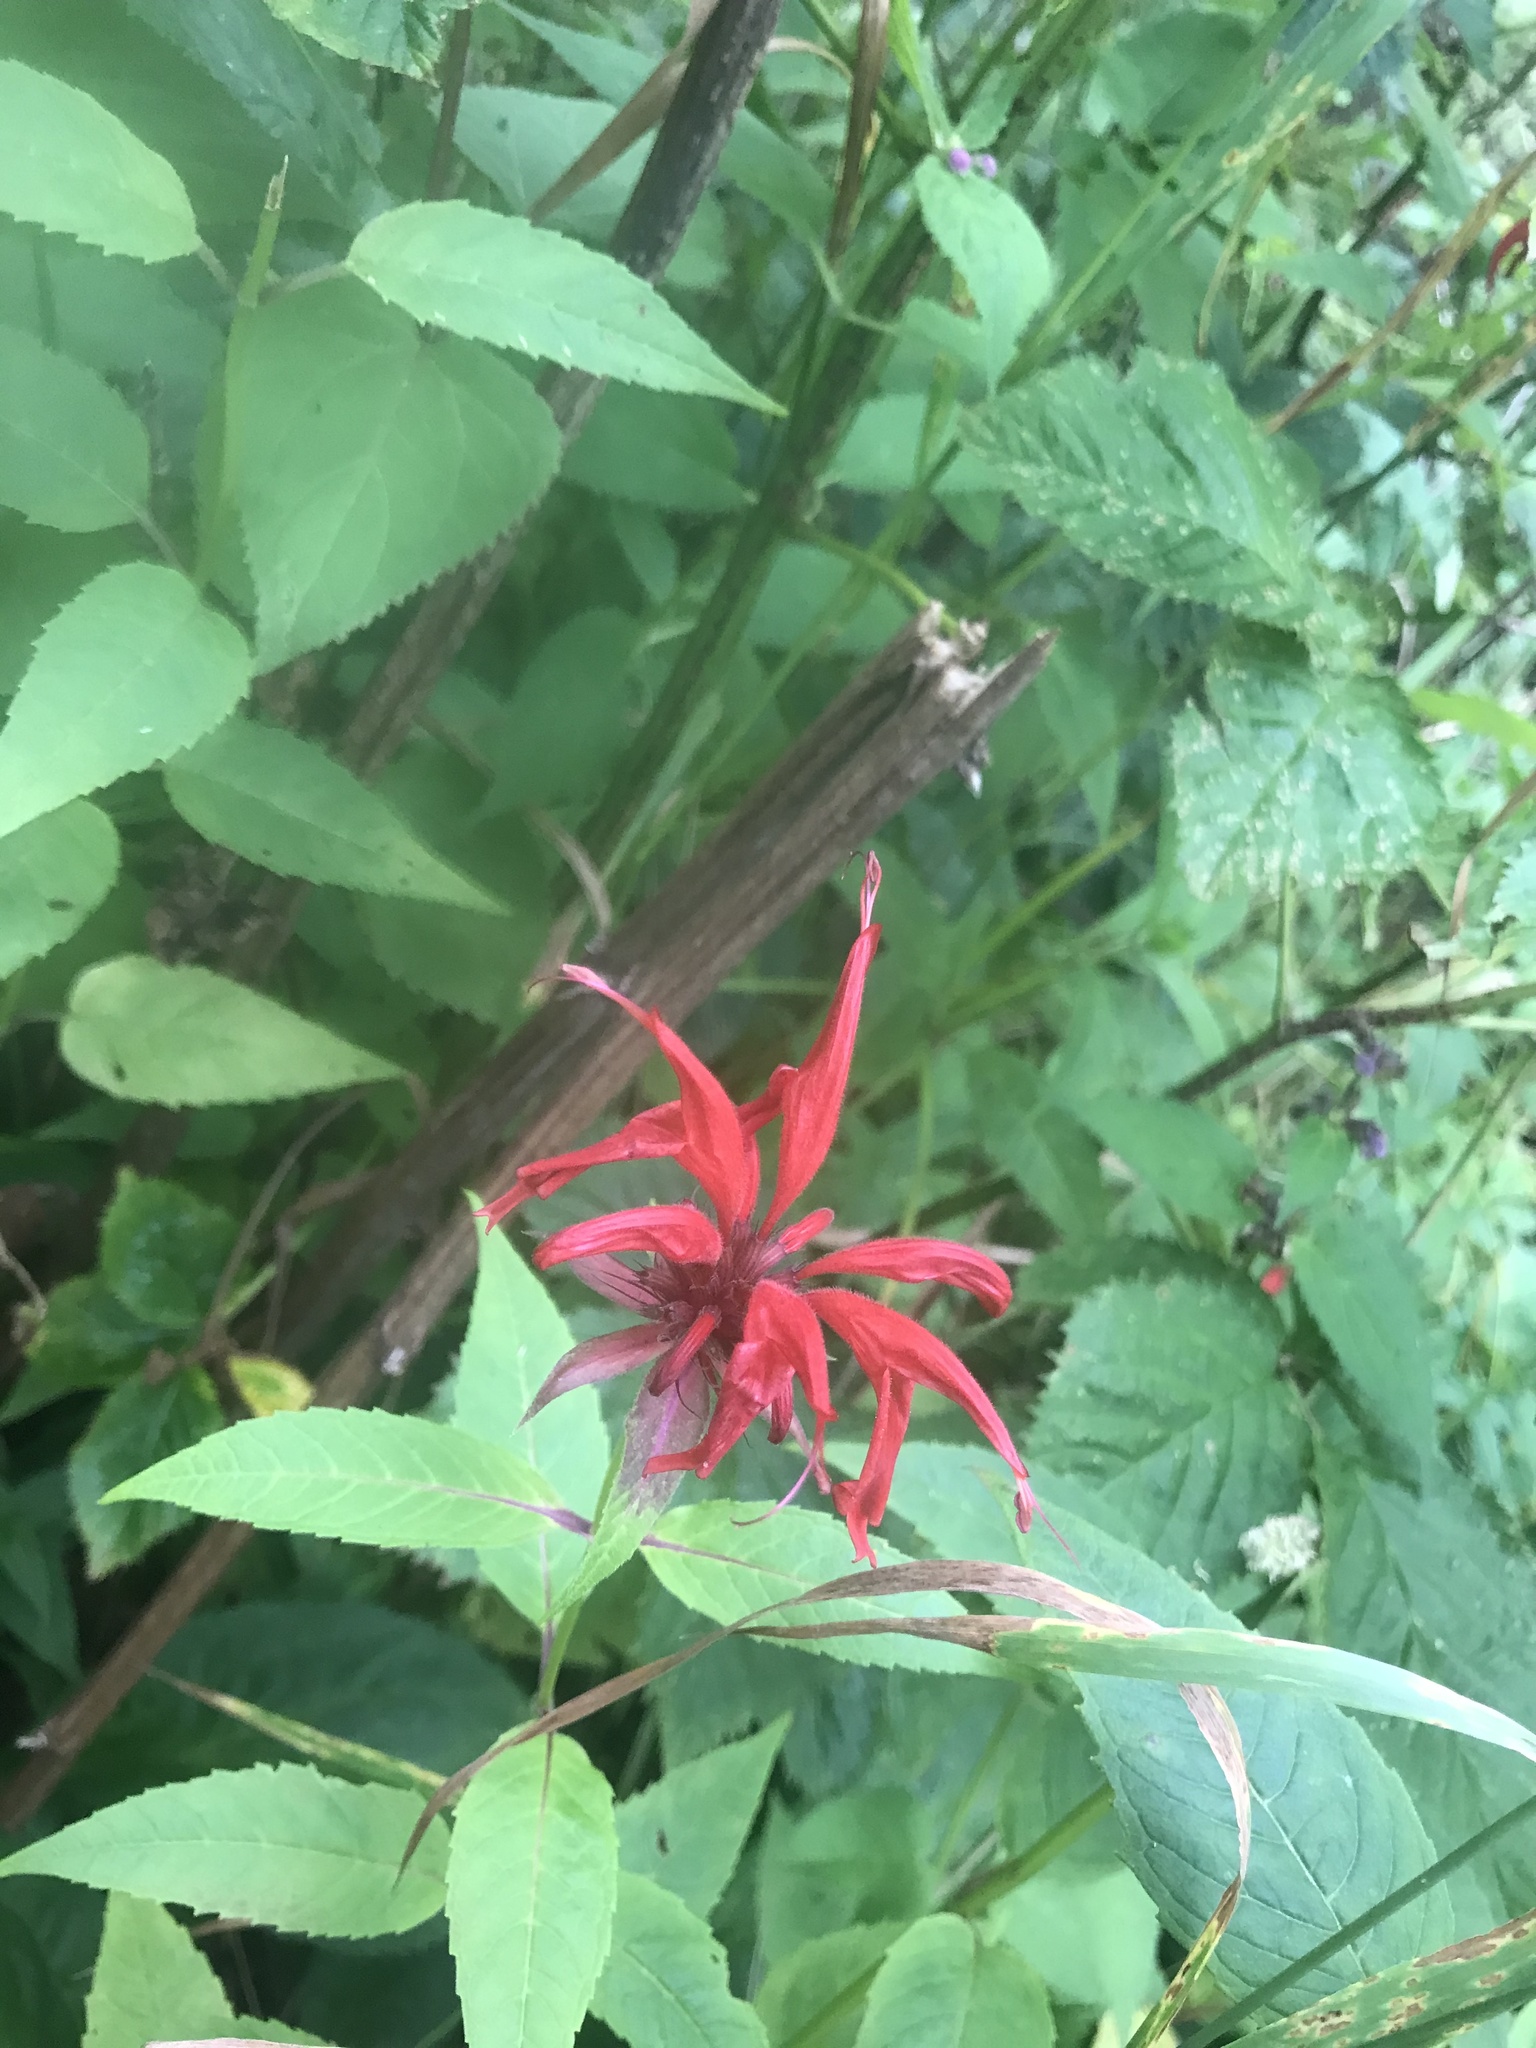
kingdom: Plantae
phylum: Tracheophyta
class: Magnoliopsida
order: Lamiales
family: Lamiaceae
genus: Monarda
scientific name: Monarda didyma
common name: Beebalm
